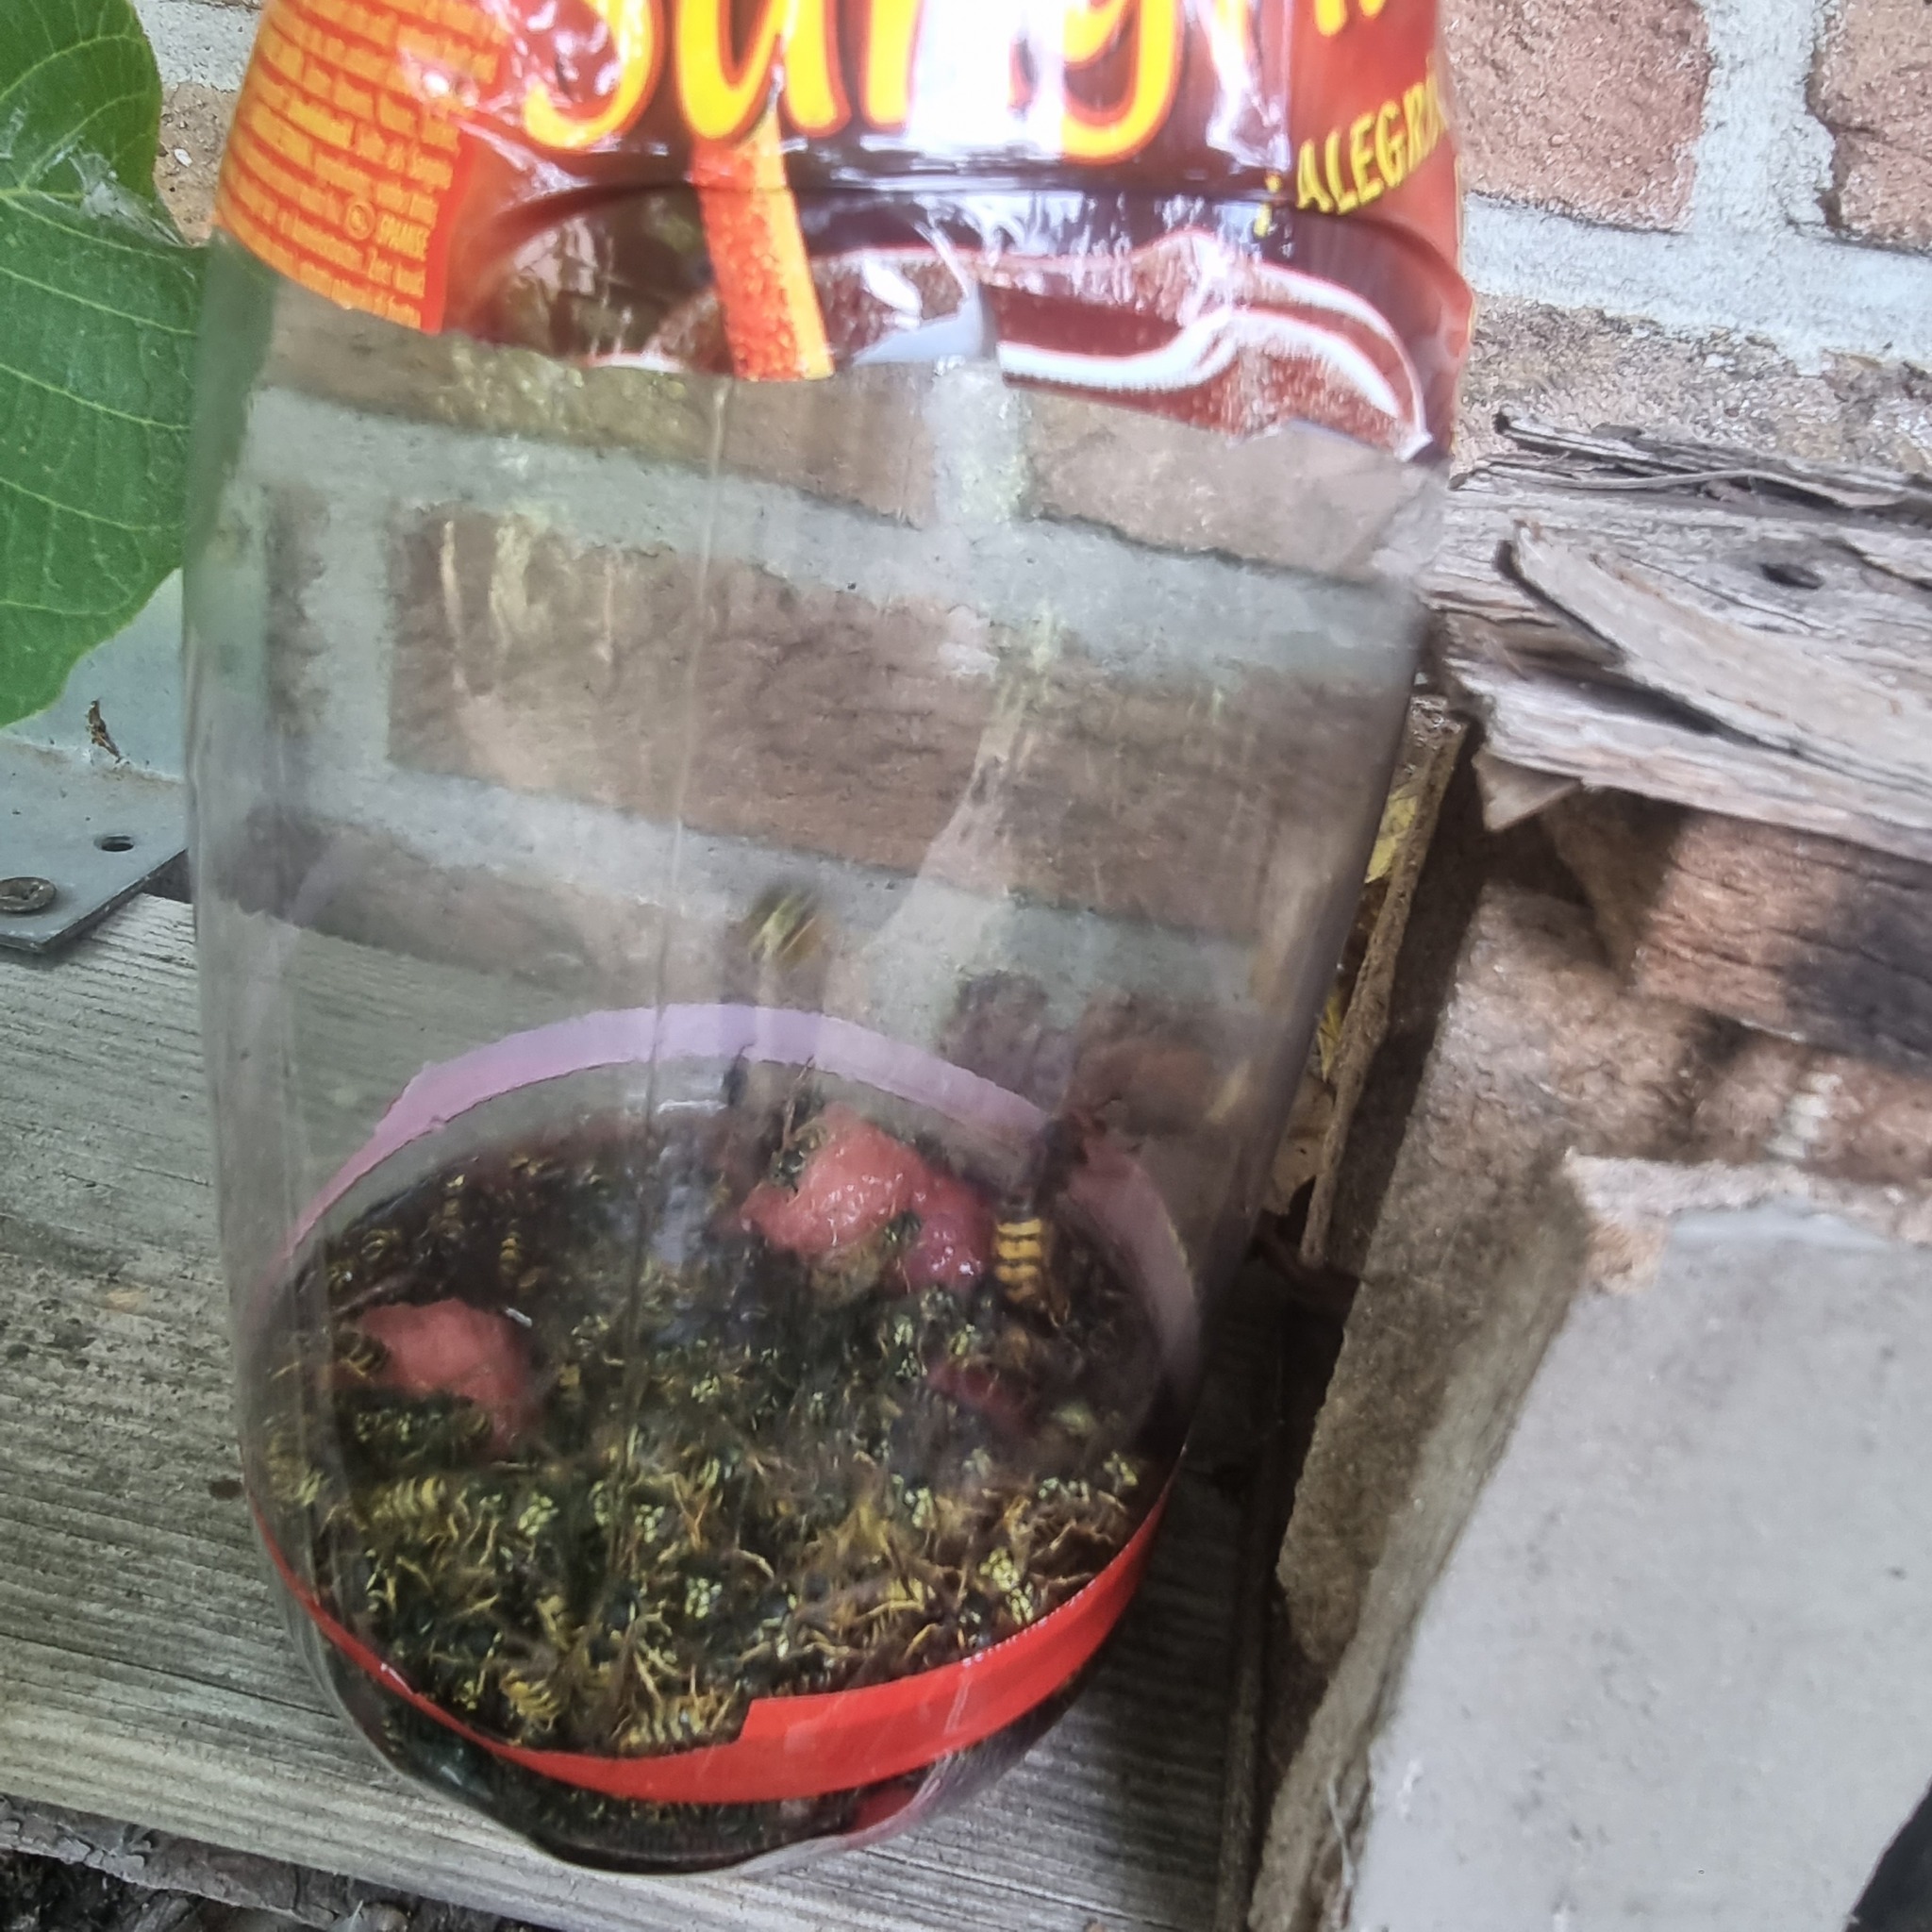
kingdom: Animalia
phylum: Arthropoda
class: Insecta
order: Hymenoptera
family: Vespidae
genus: Vespa
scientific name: Vespa crabro
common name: Hornet
